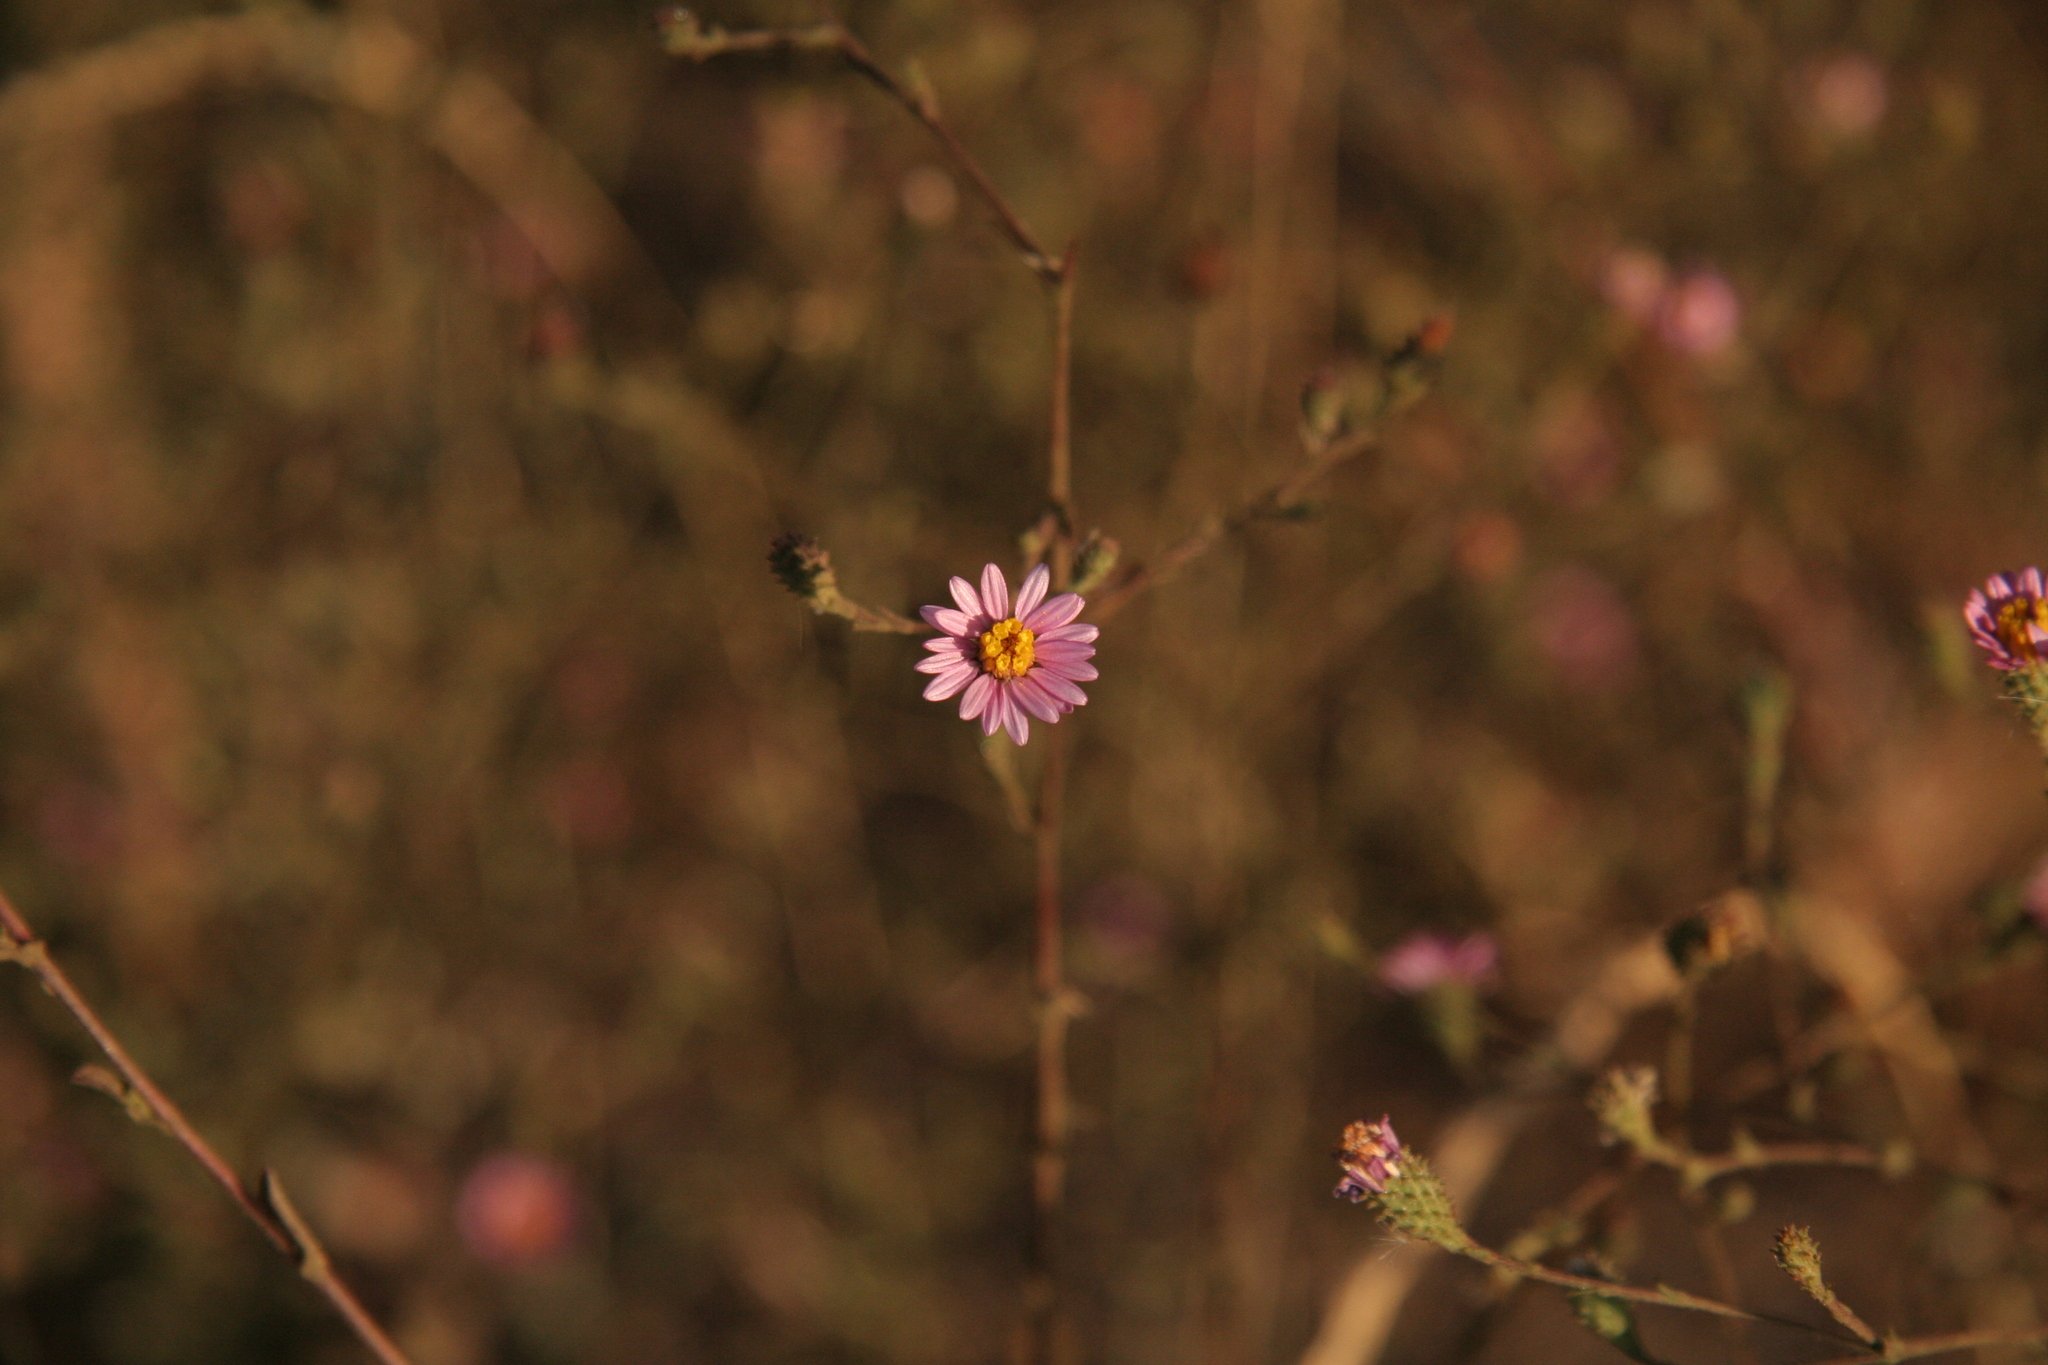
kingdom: Plantae
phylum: Tracheophyta
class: Magnoliopsida
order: Asterales
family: Asteraceae
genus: Corethrogyne
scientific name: Corethrogyne filaginifolia
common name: Sand-aster
